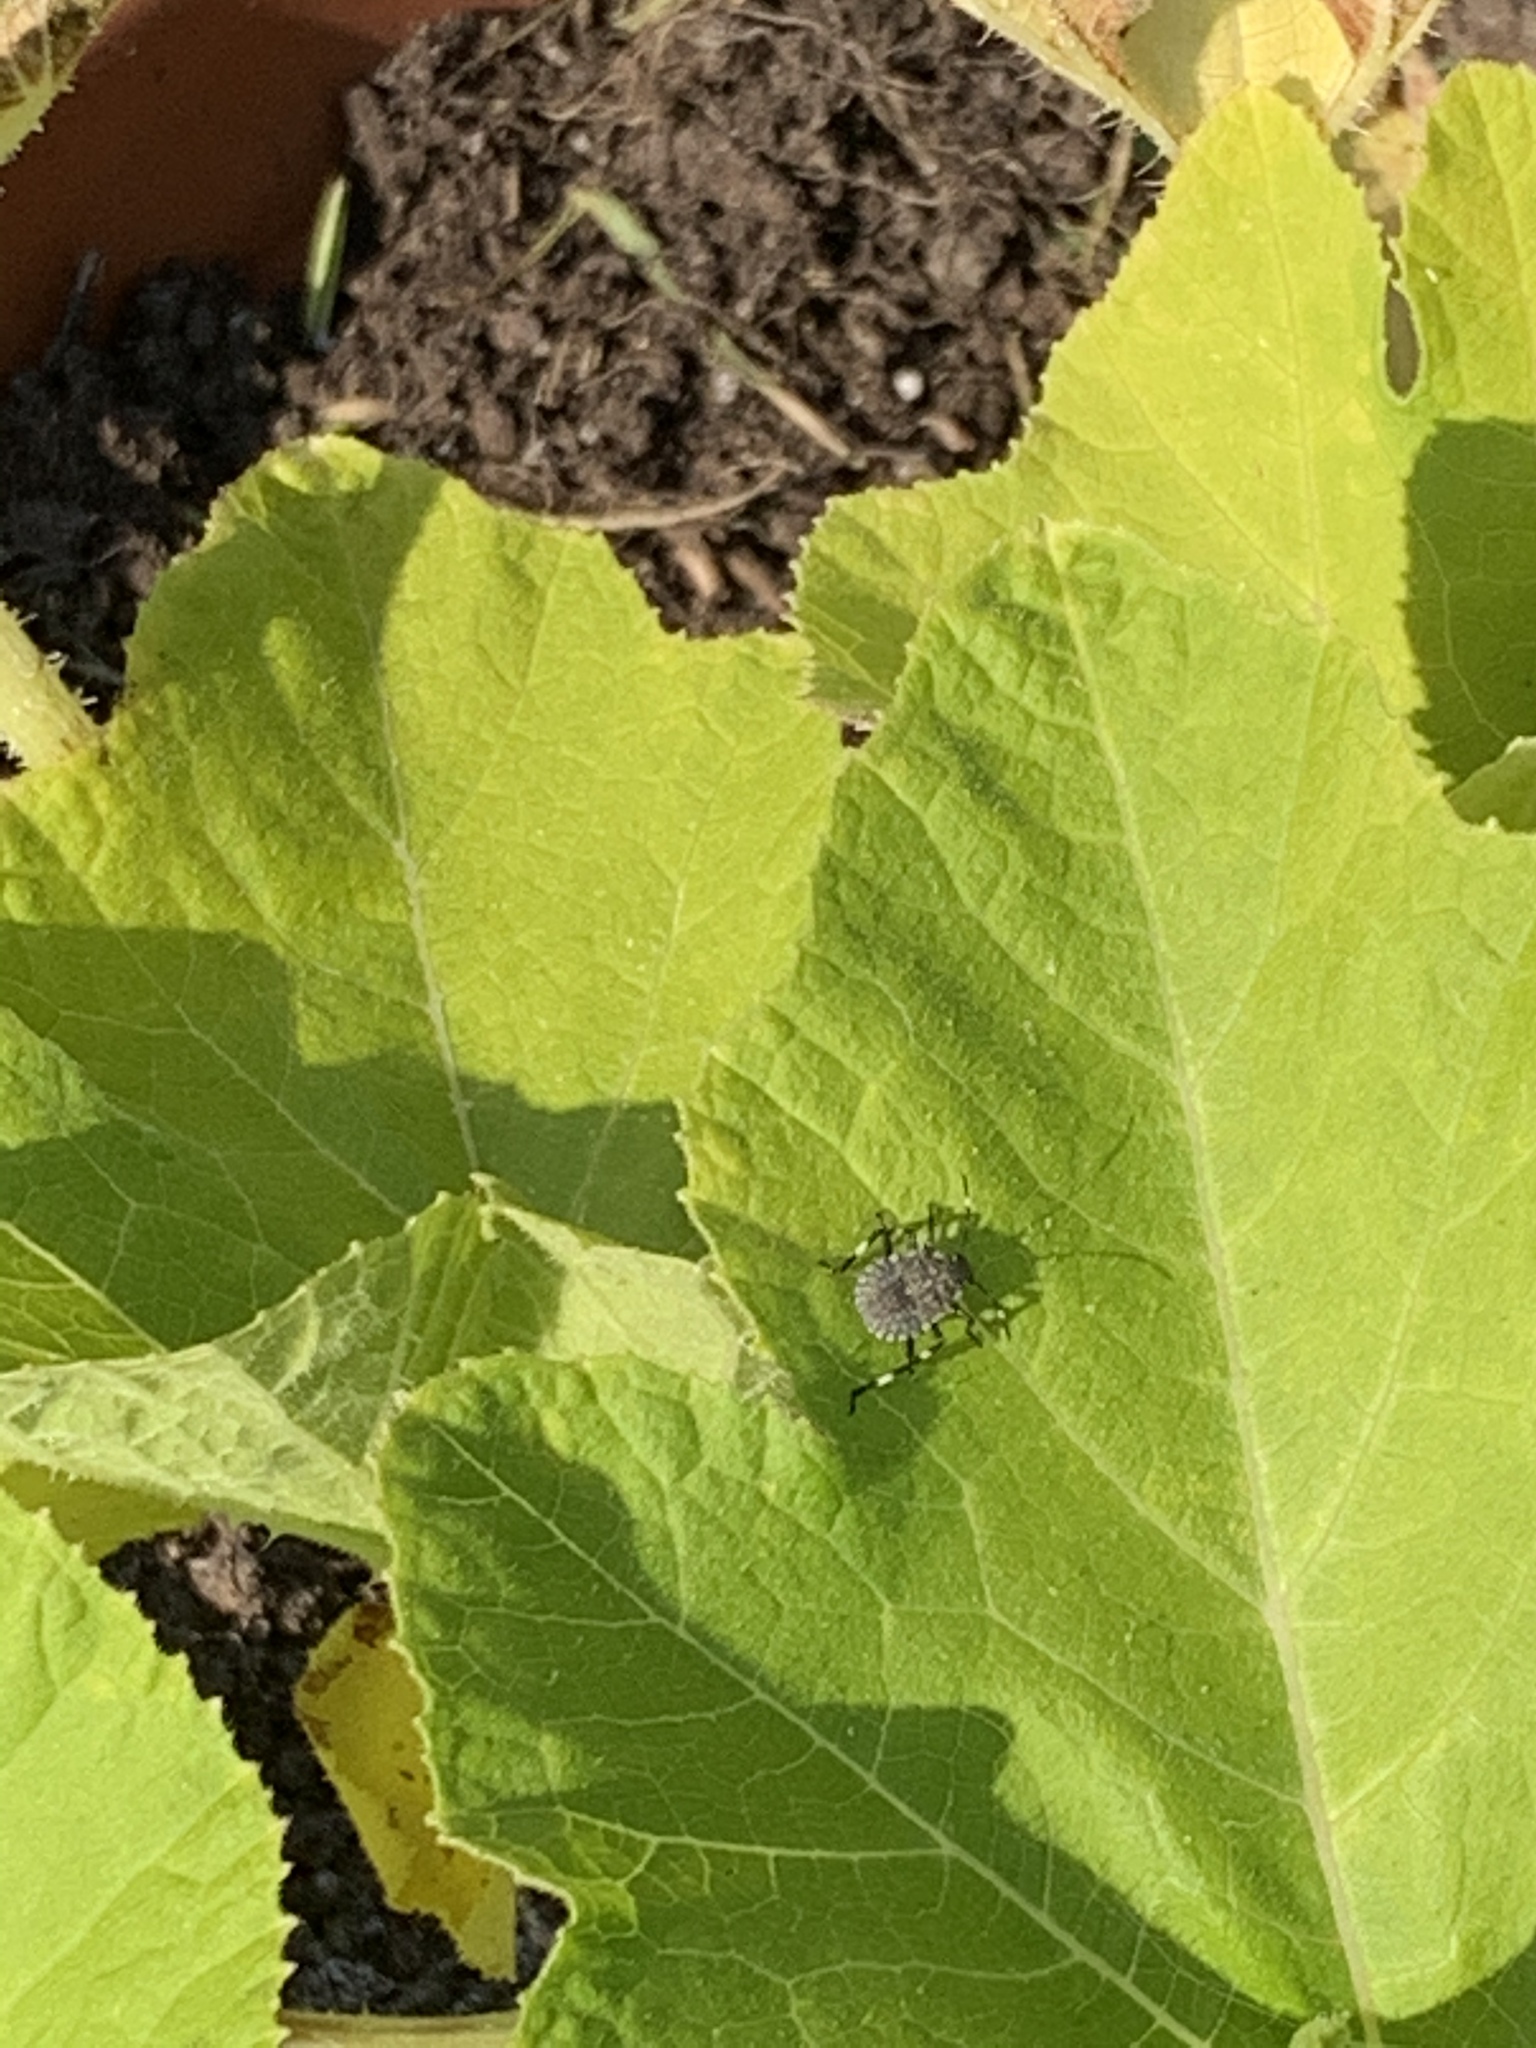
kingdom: Animalia
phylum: Arthropoda
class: Insecta
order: Hemiptera
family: Pentatomidae
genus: Halyomorpha
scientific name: Halyomorpha halys
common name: Brown marmorated stink bug
